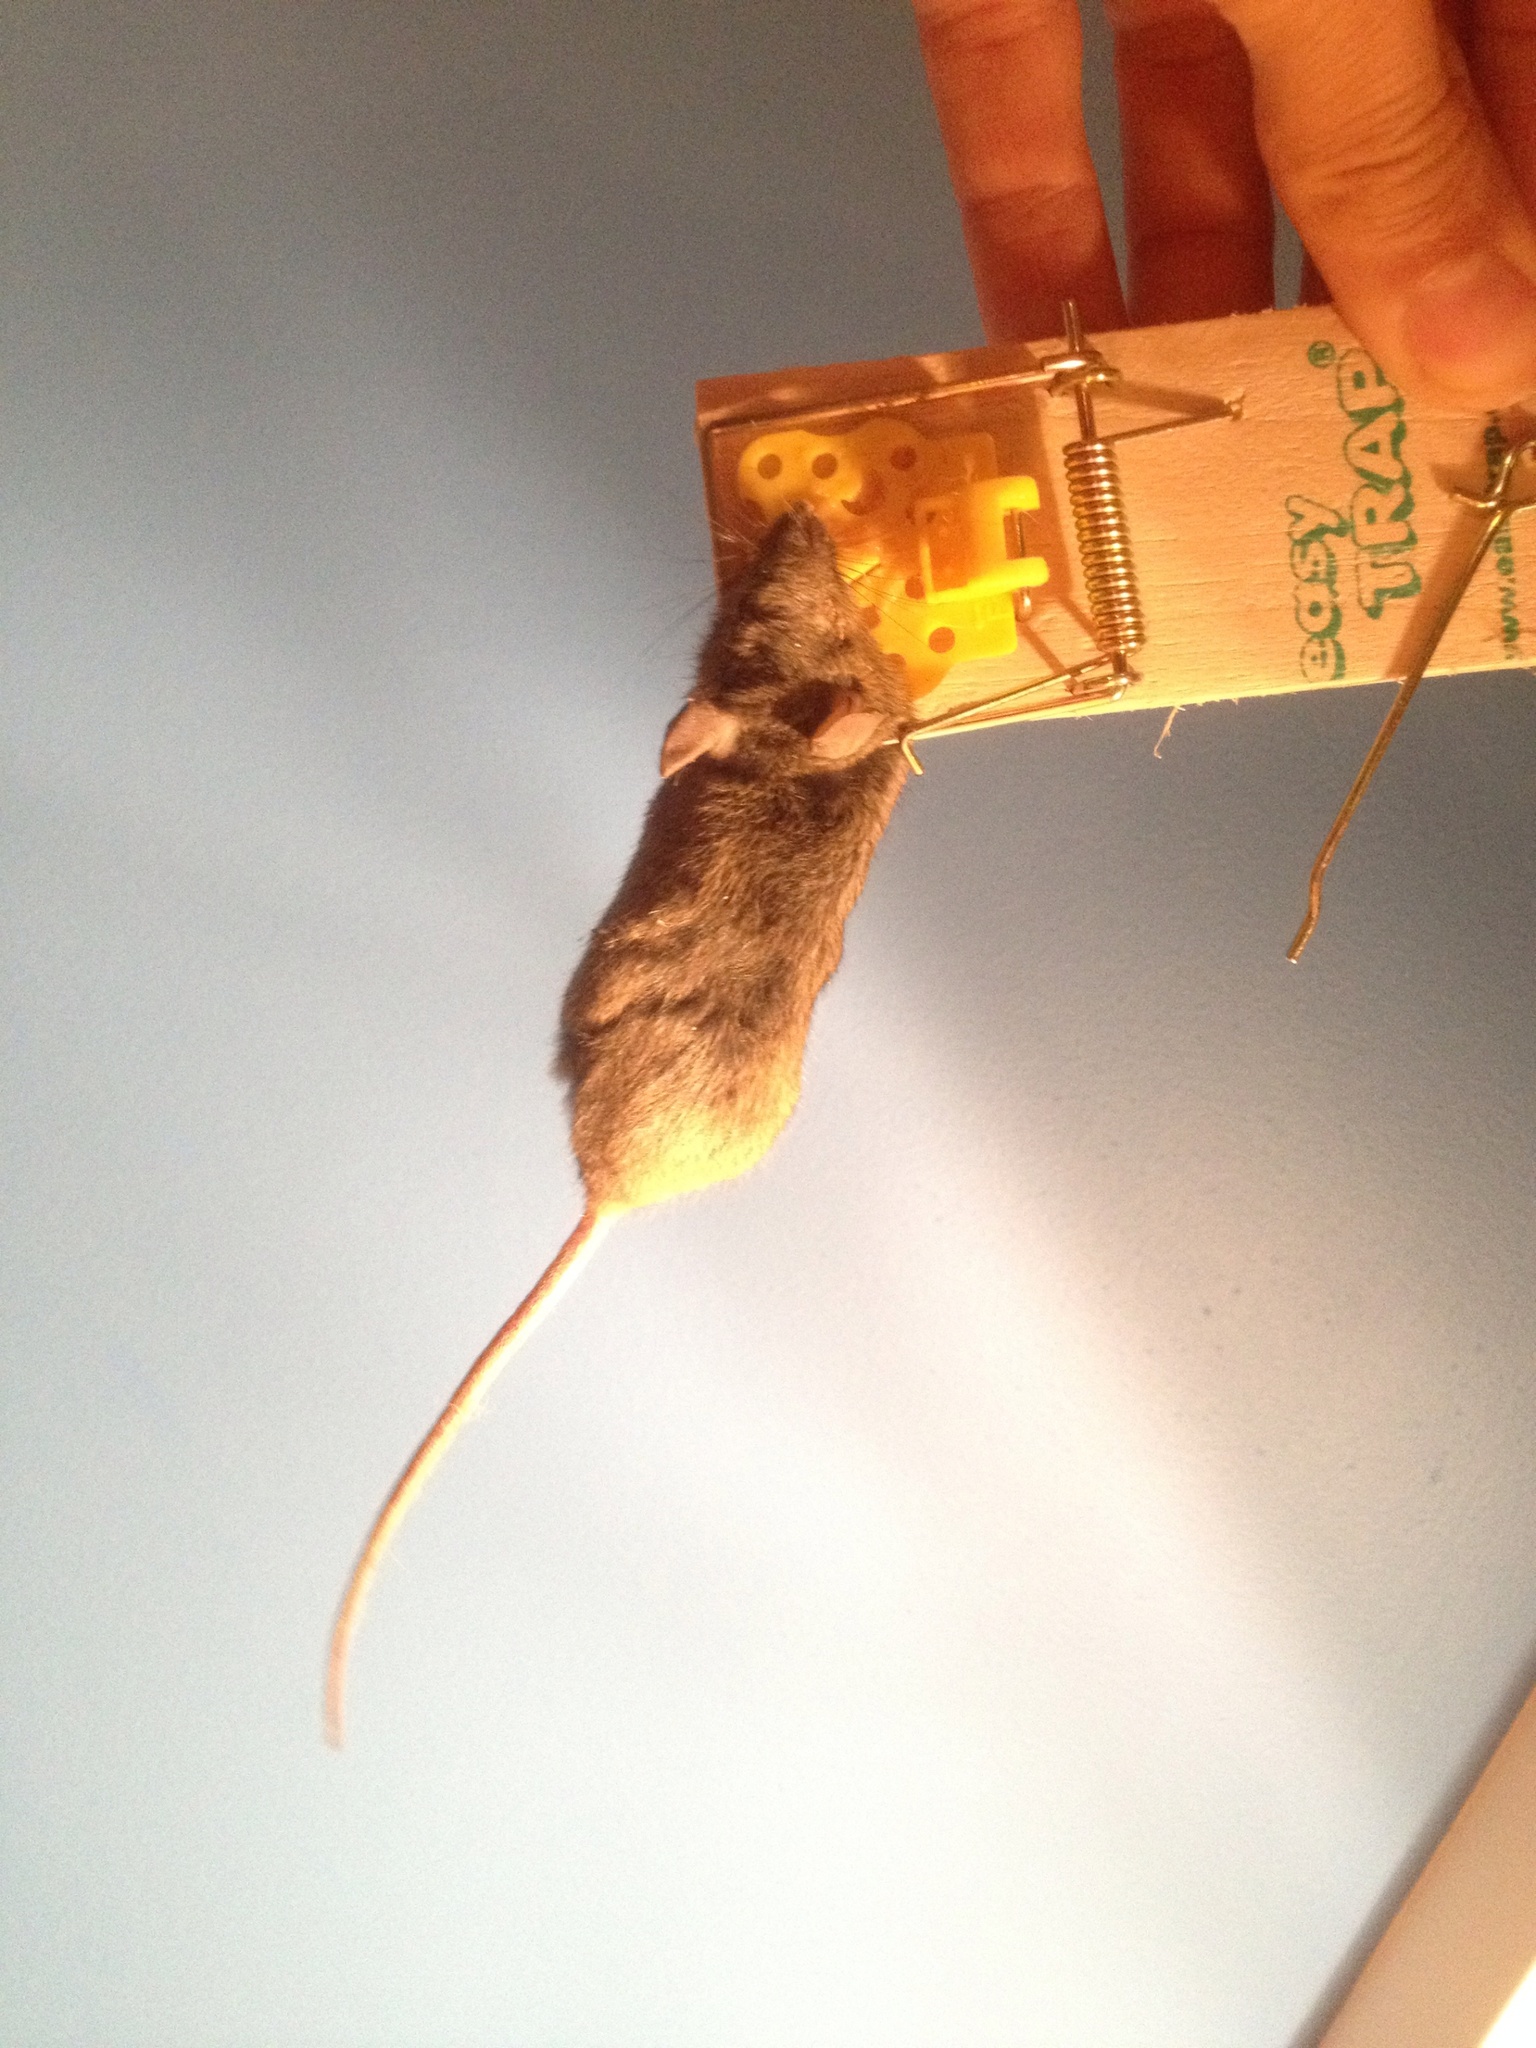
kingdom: Animalia
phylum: Chordata
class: Mammalia
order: Rodentia
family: Muridae
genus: Mus
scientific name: Mus musculus
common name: House mouse
